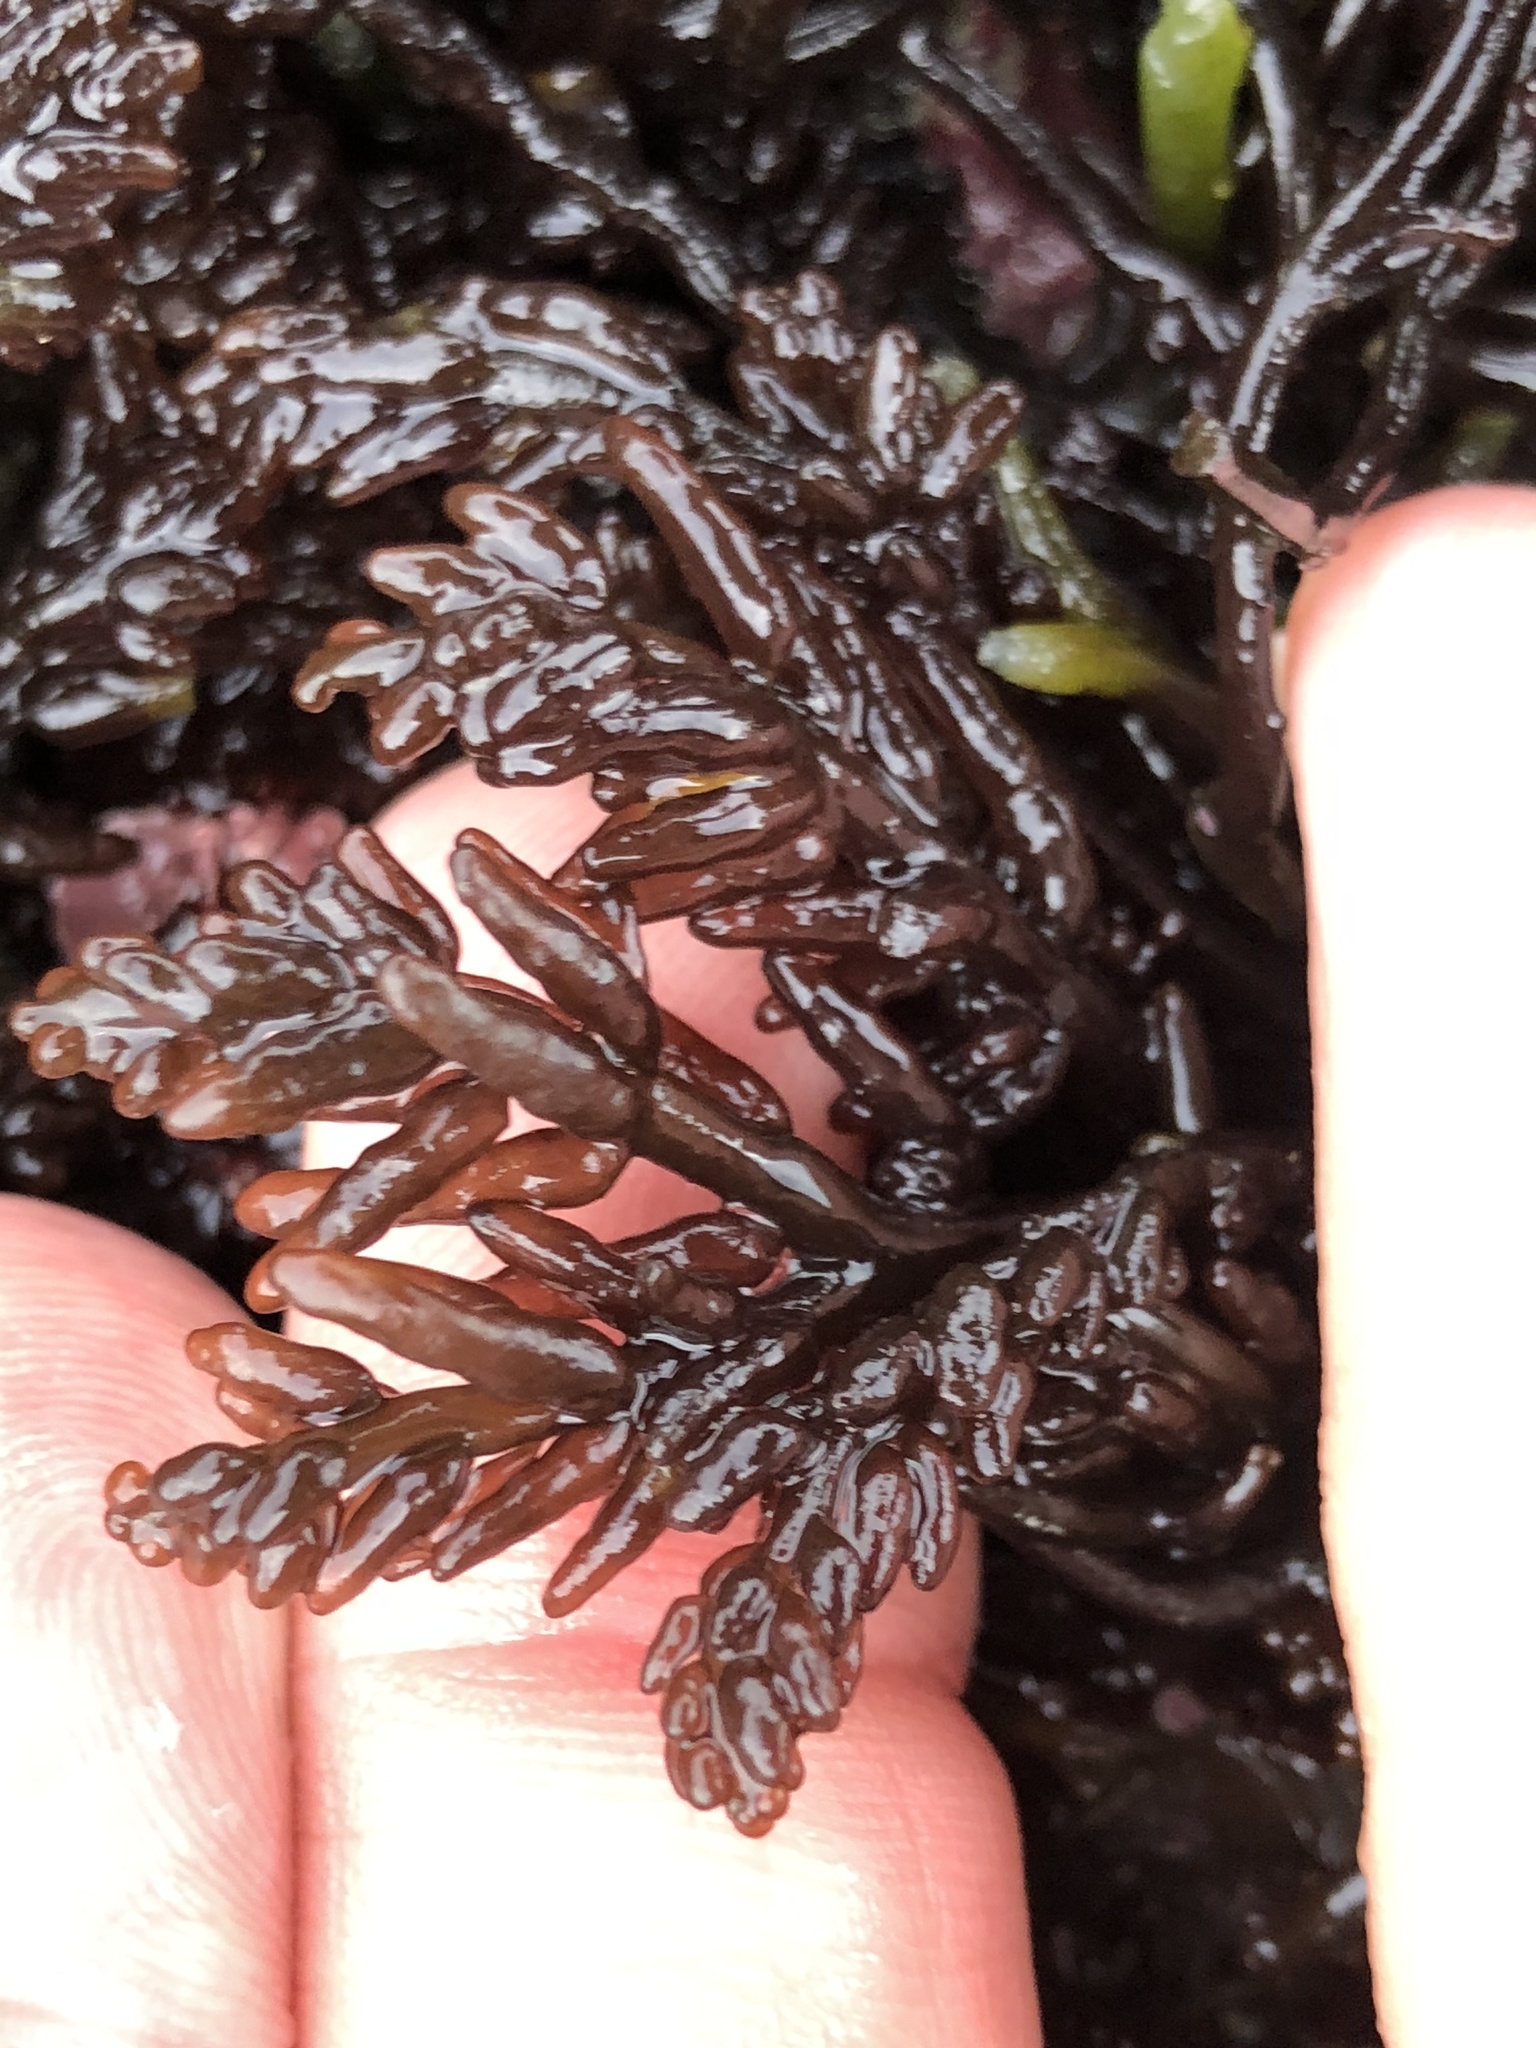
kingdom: Plantae
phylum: Rhodophyta
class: Florideophyceae
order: Rhodymeniales
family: Champiaceae
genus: Neogastroclonium
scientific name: Neogastroclonium subarticulatum
